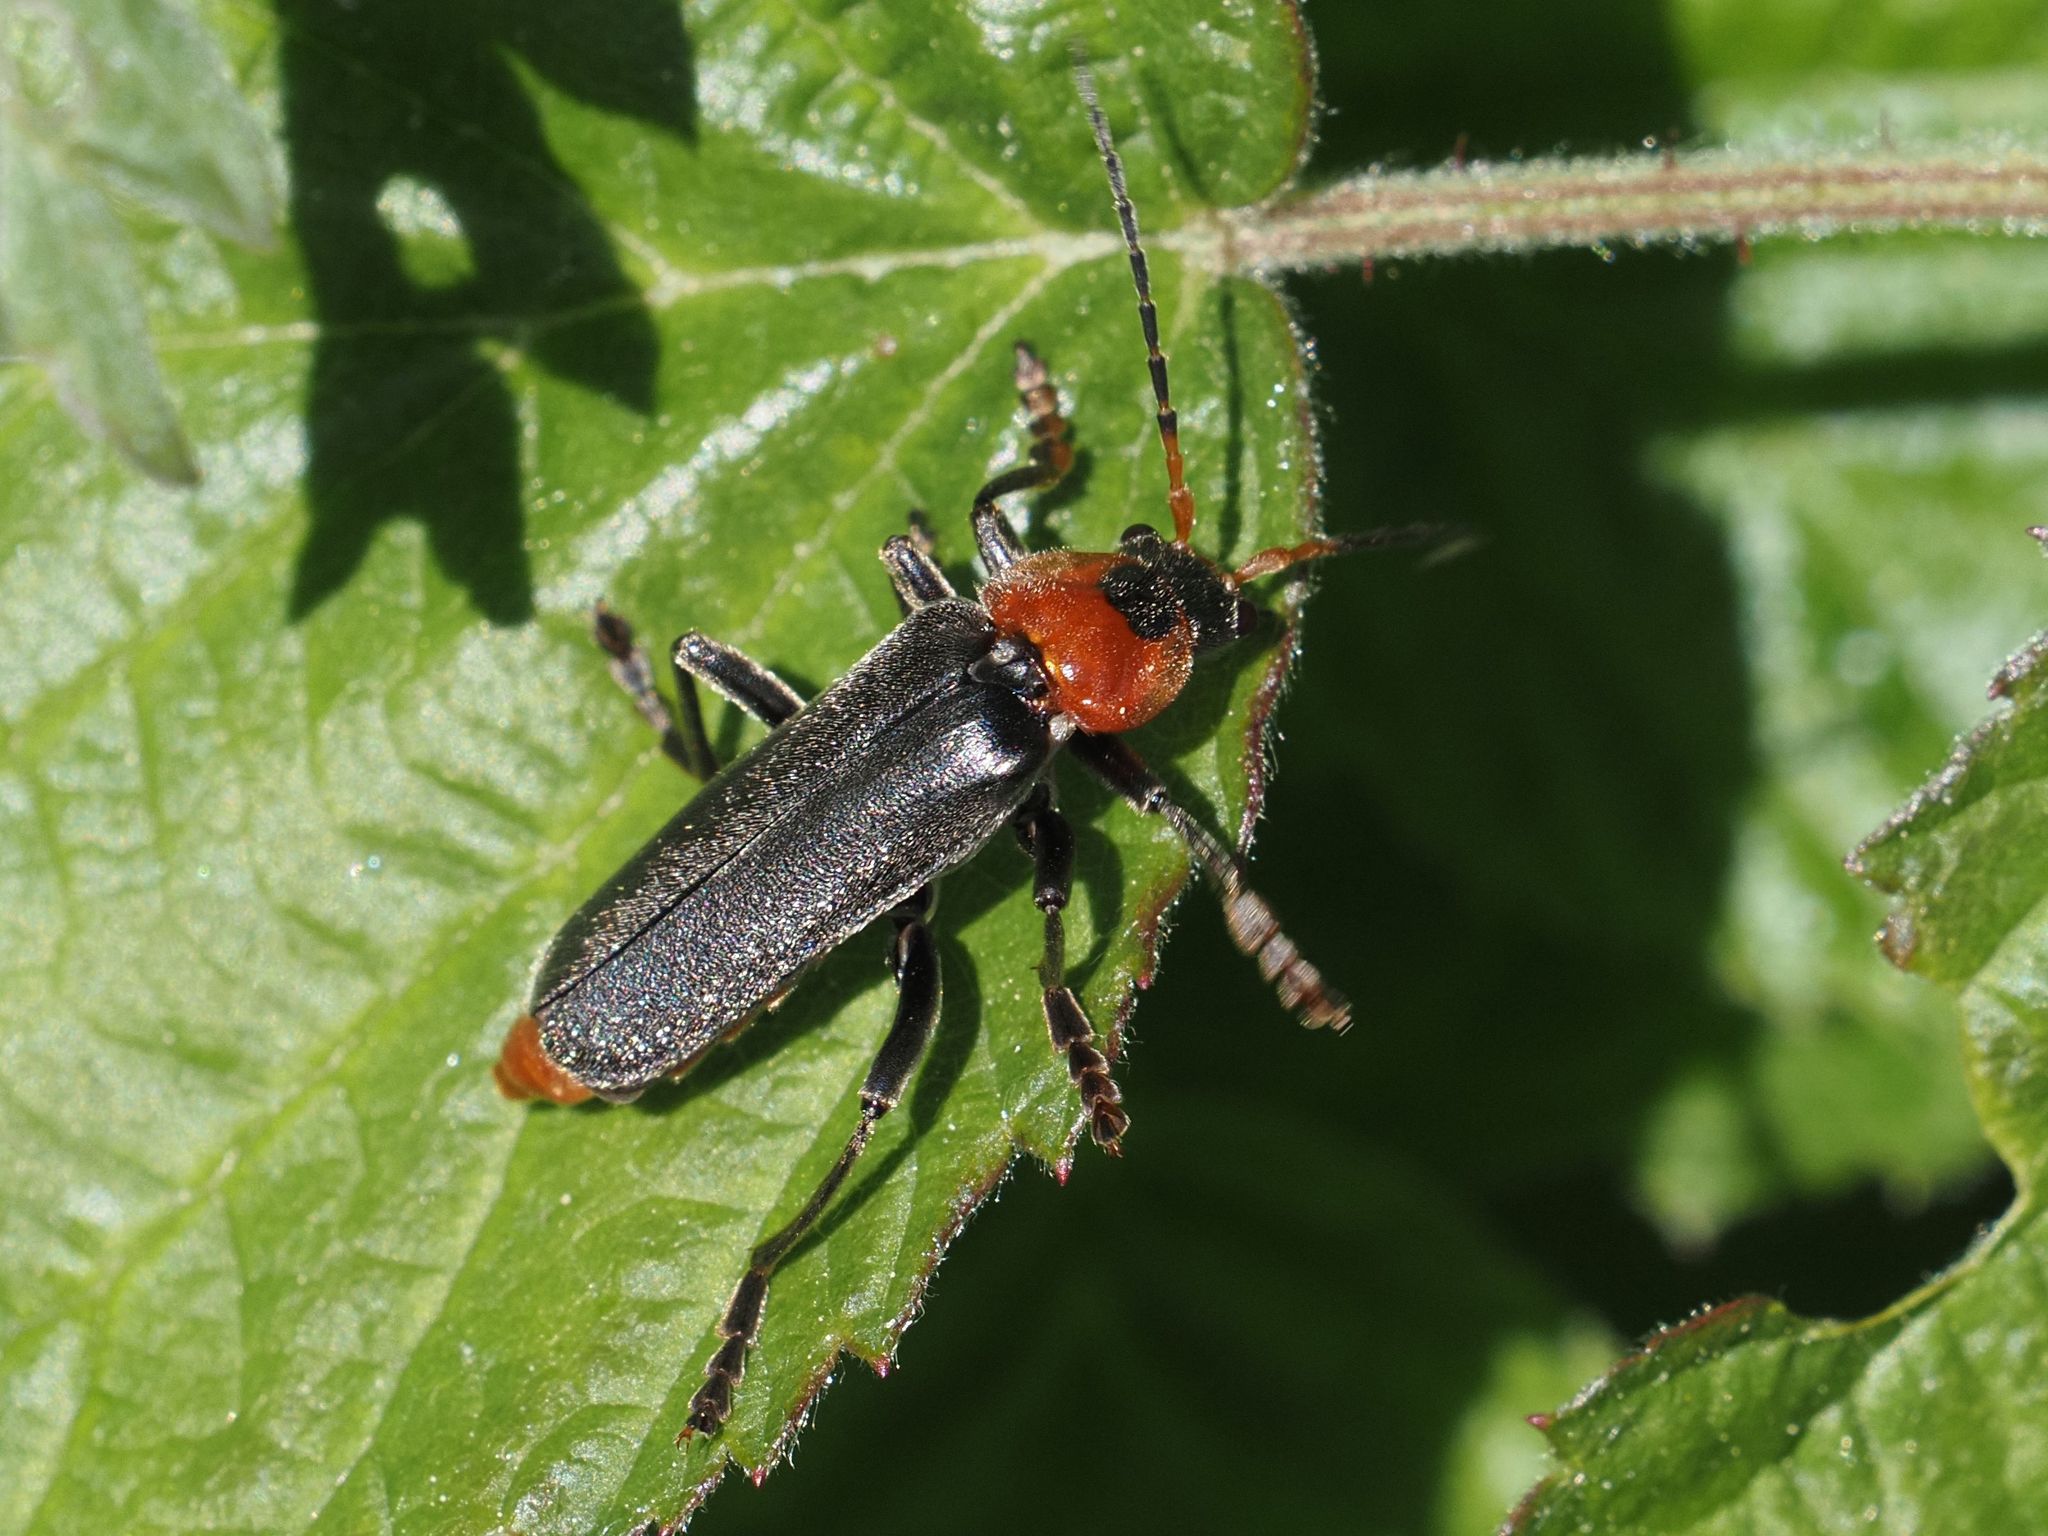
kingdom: Animalia
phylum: Arthropoda
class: Insecta
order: Coleoptera
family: Cantharidae
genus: Cantharis
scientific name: Cantharis fusca
